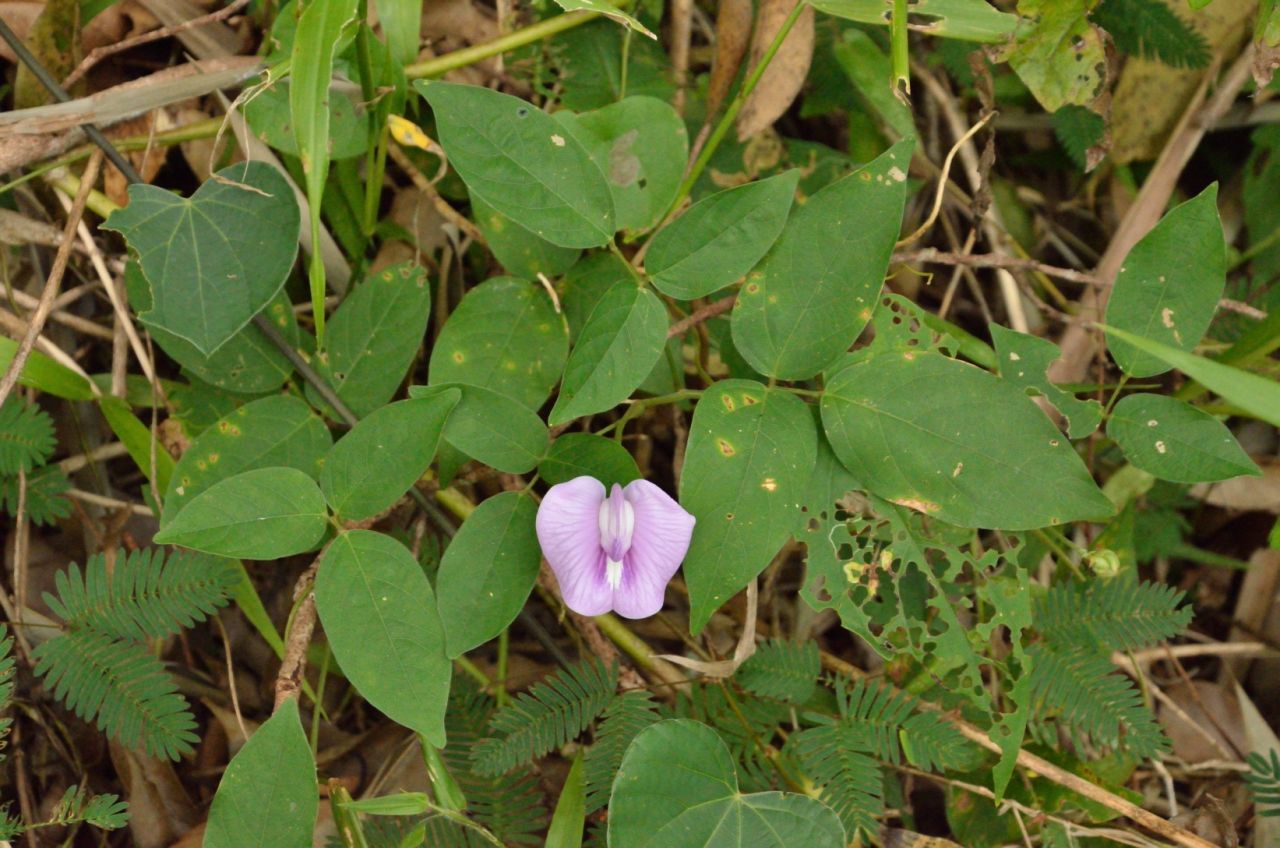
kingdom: Plantae
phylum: Tracheophyta
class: Magnoliopsida
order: Fabales
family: Fabaceae
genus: Centrosema
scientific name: Centrosema virginianum
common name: Butterfly-pea
